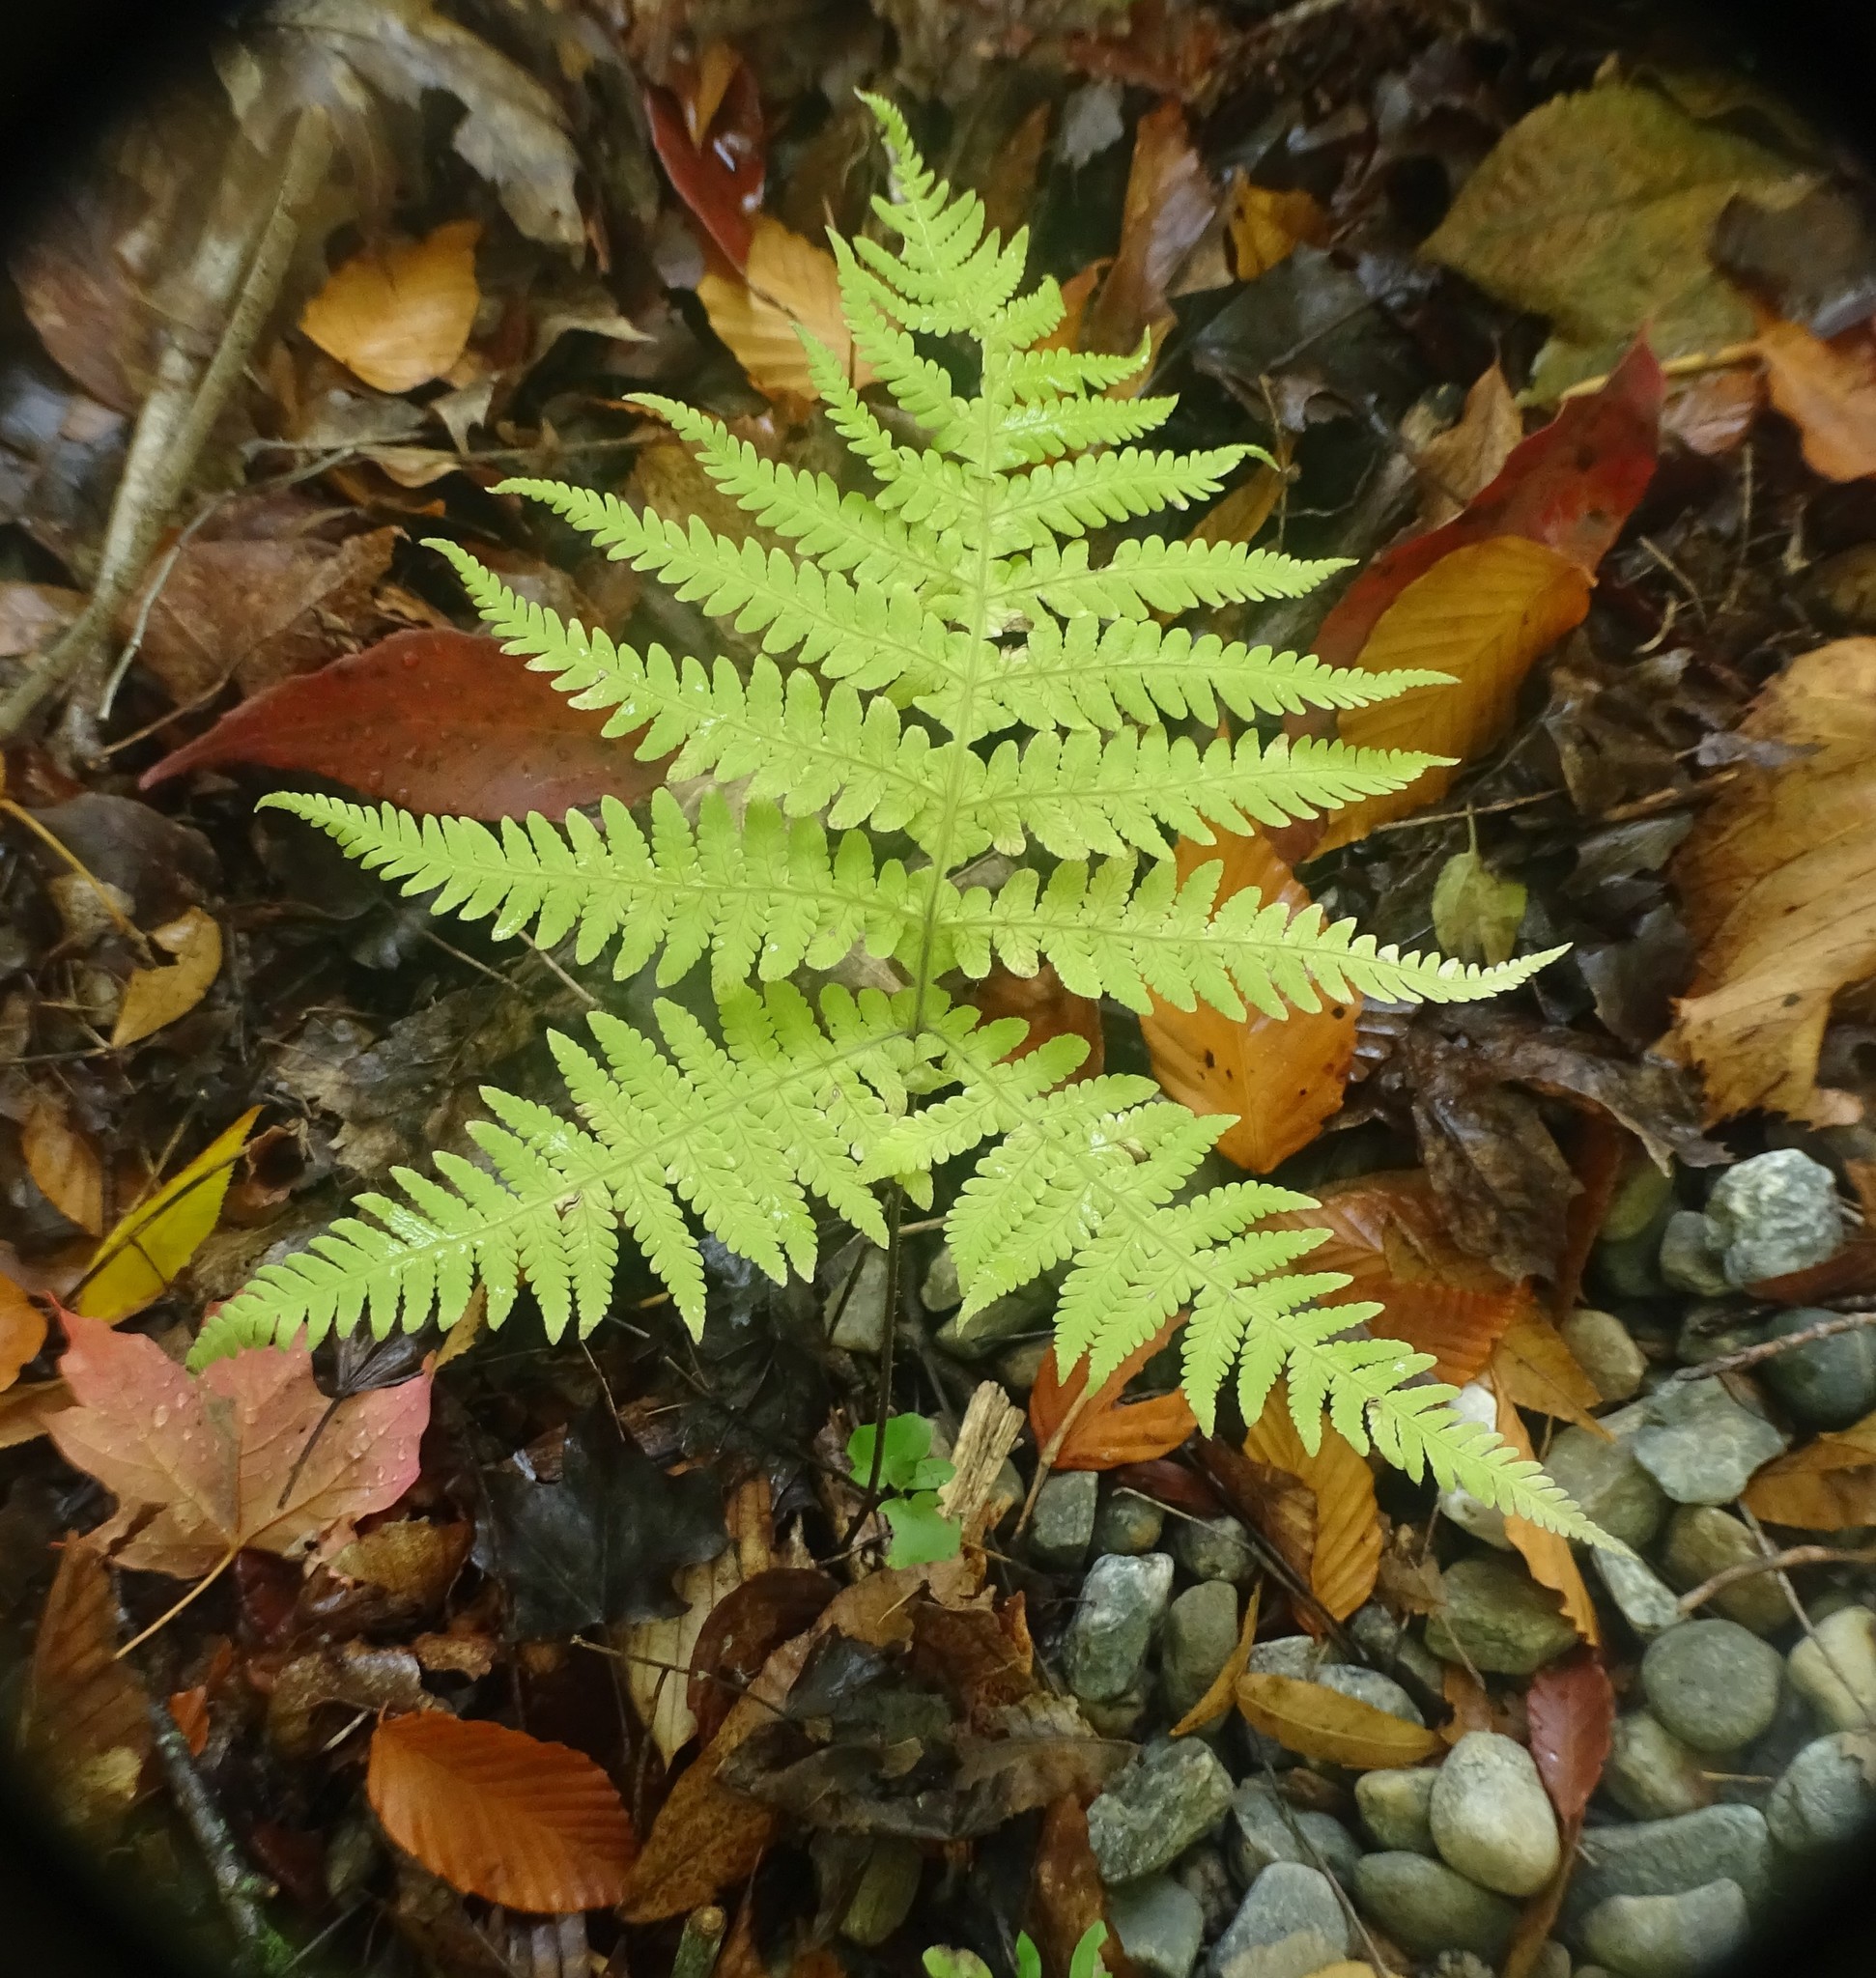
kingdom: Plantae
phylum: Tracheophyta
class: Polypodiopsida
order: Polypodiales
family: Thelypteridaceae
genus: Phegopteris
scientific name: Phegopteris hexagonoptera
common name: Broad beech fern
